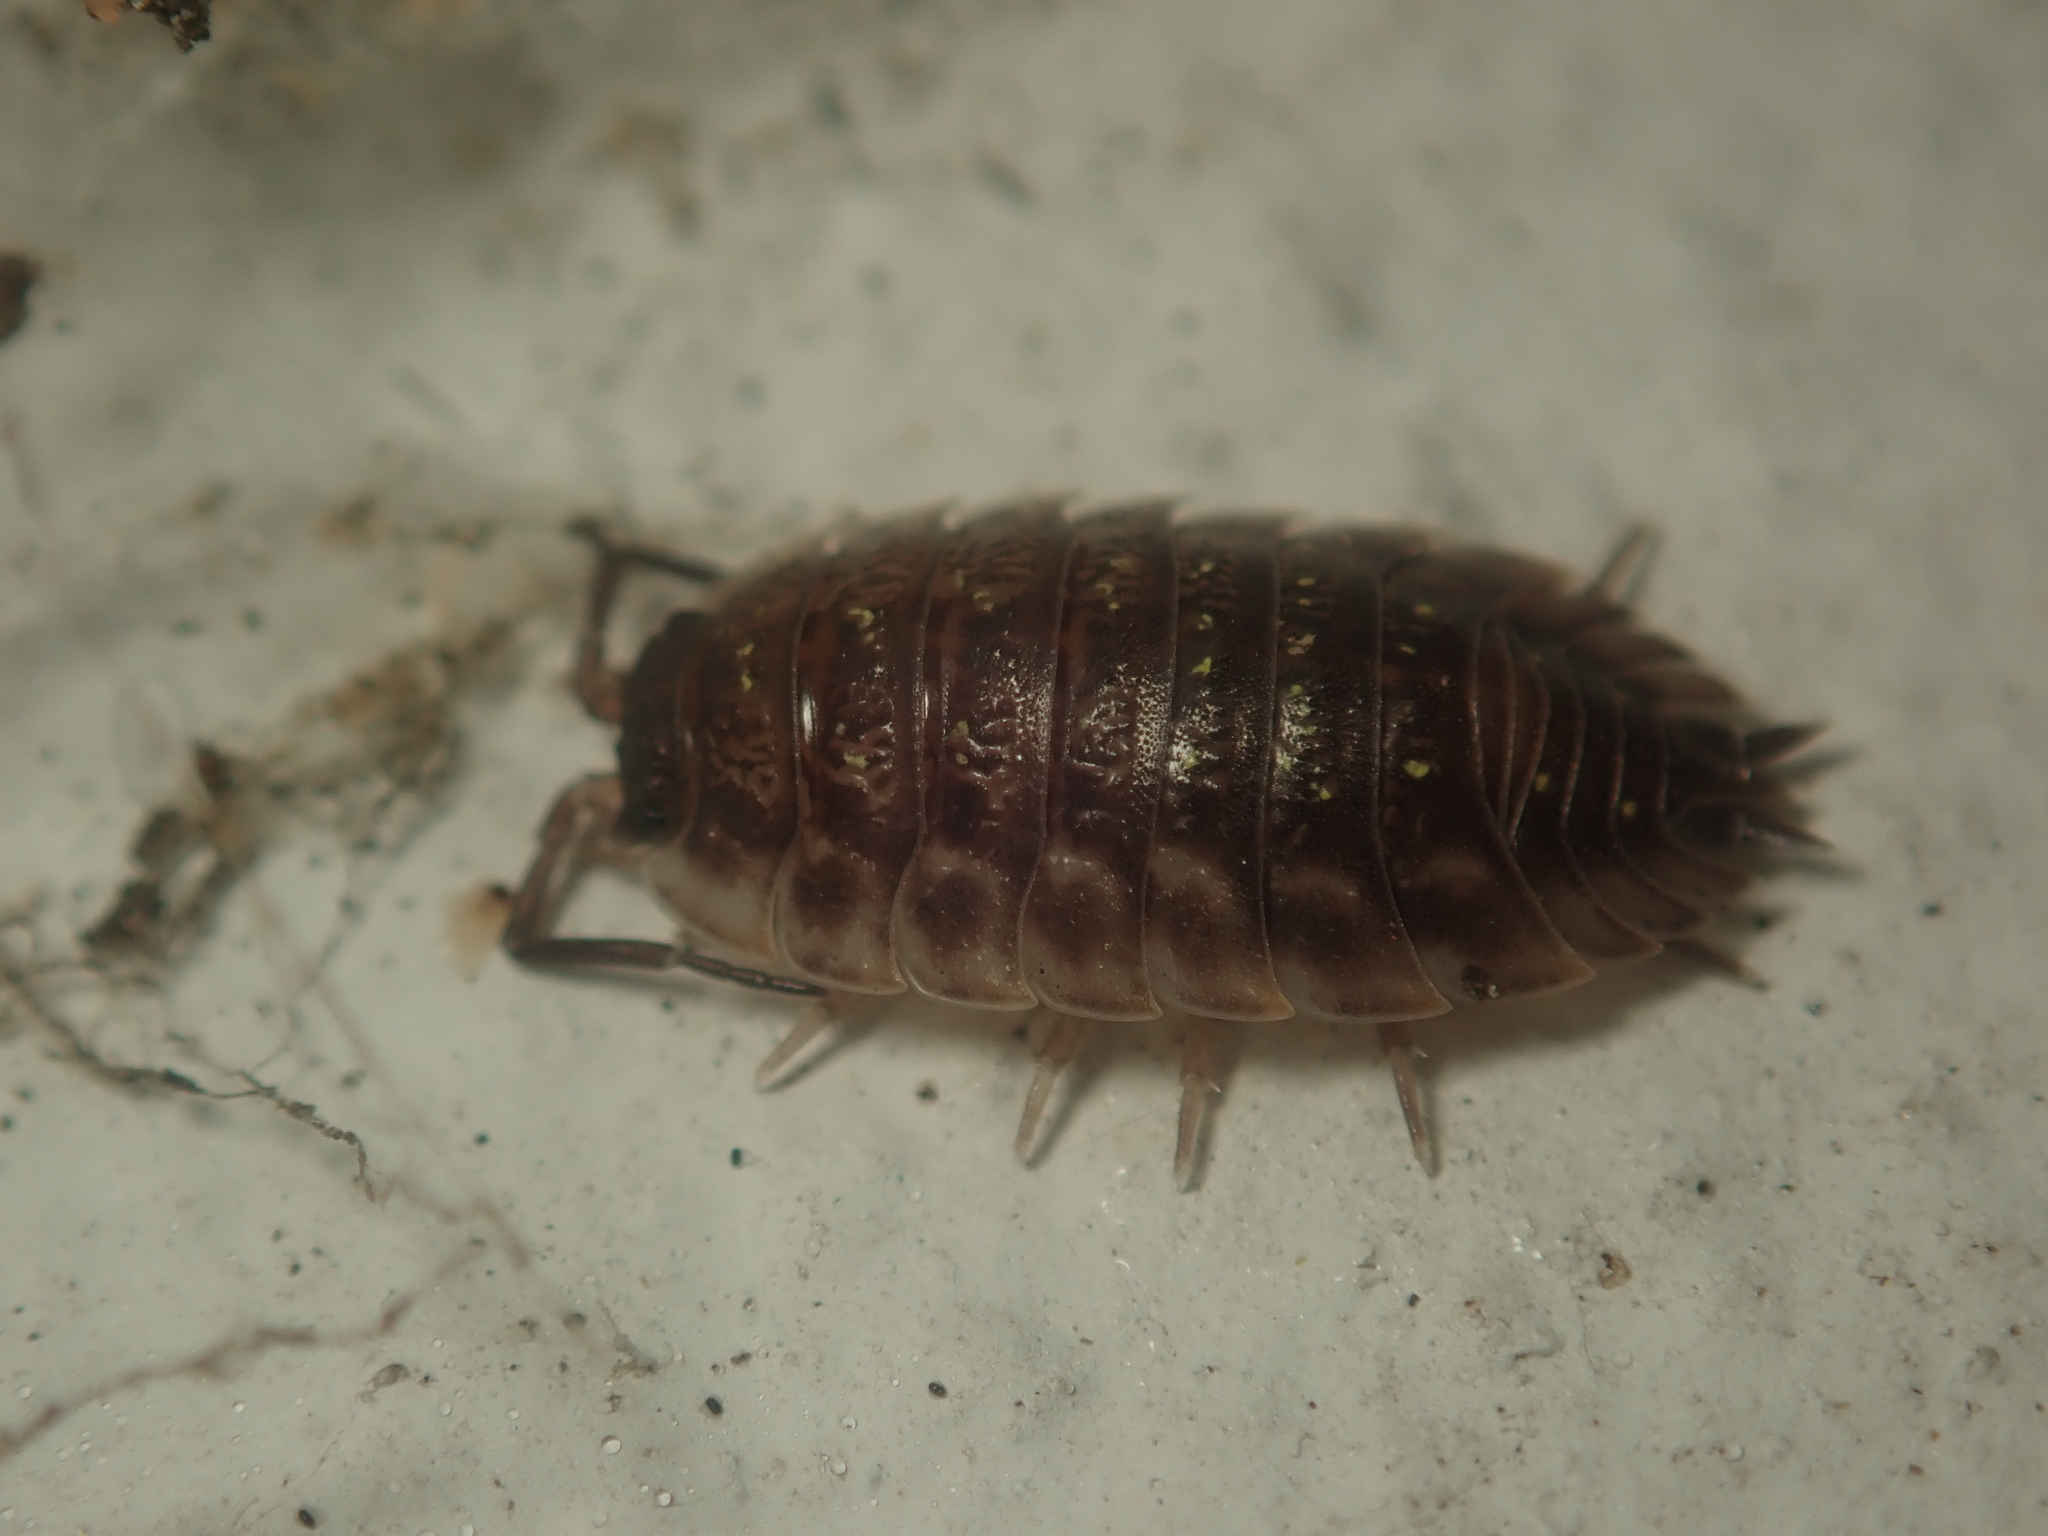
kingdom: Animalia
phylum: Arthropoda
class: Malacostraca
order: Isopoda
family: Oniscidae
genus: Oniscus
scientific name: Oniscus asellus
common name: Common shiny woodlouse
